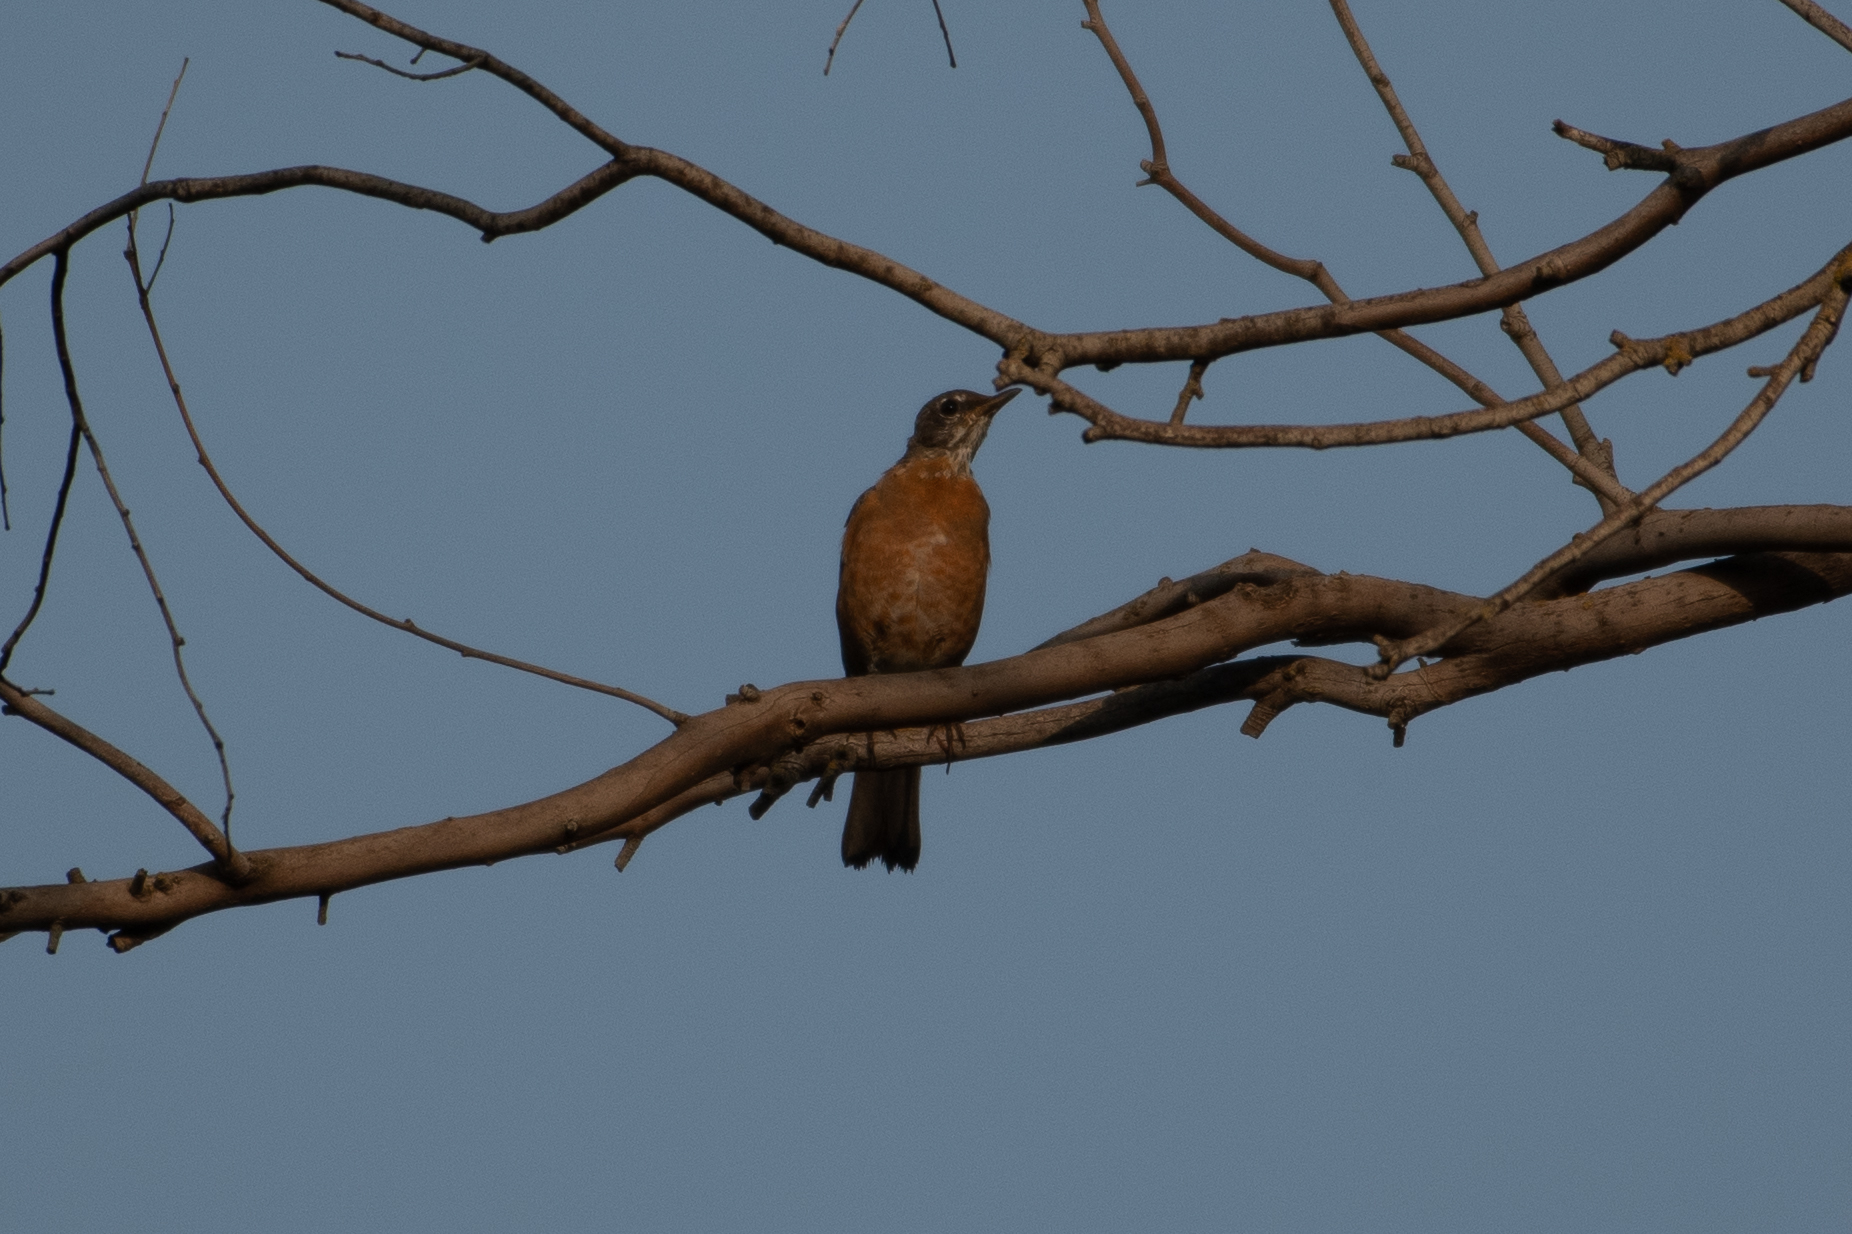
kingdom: Animalia
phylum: Chordata
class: Aves
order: Passeriformes
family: Turdidae
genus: Turdus
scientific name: Turdus migratorius
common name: American robin
